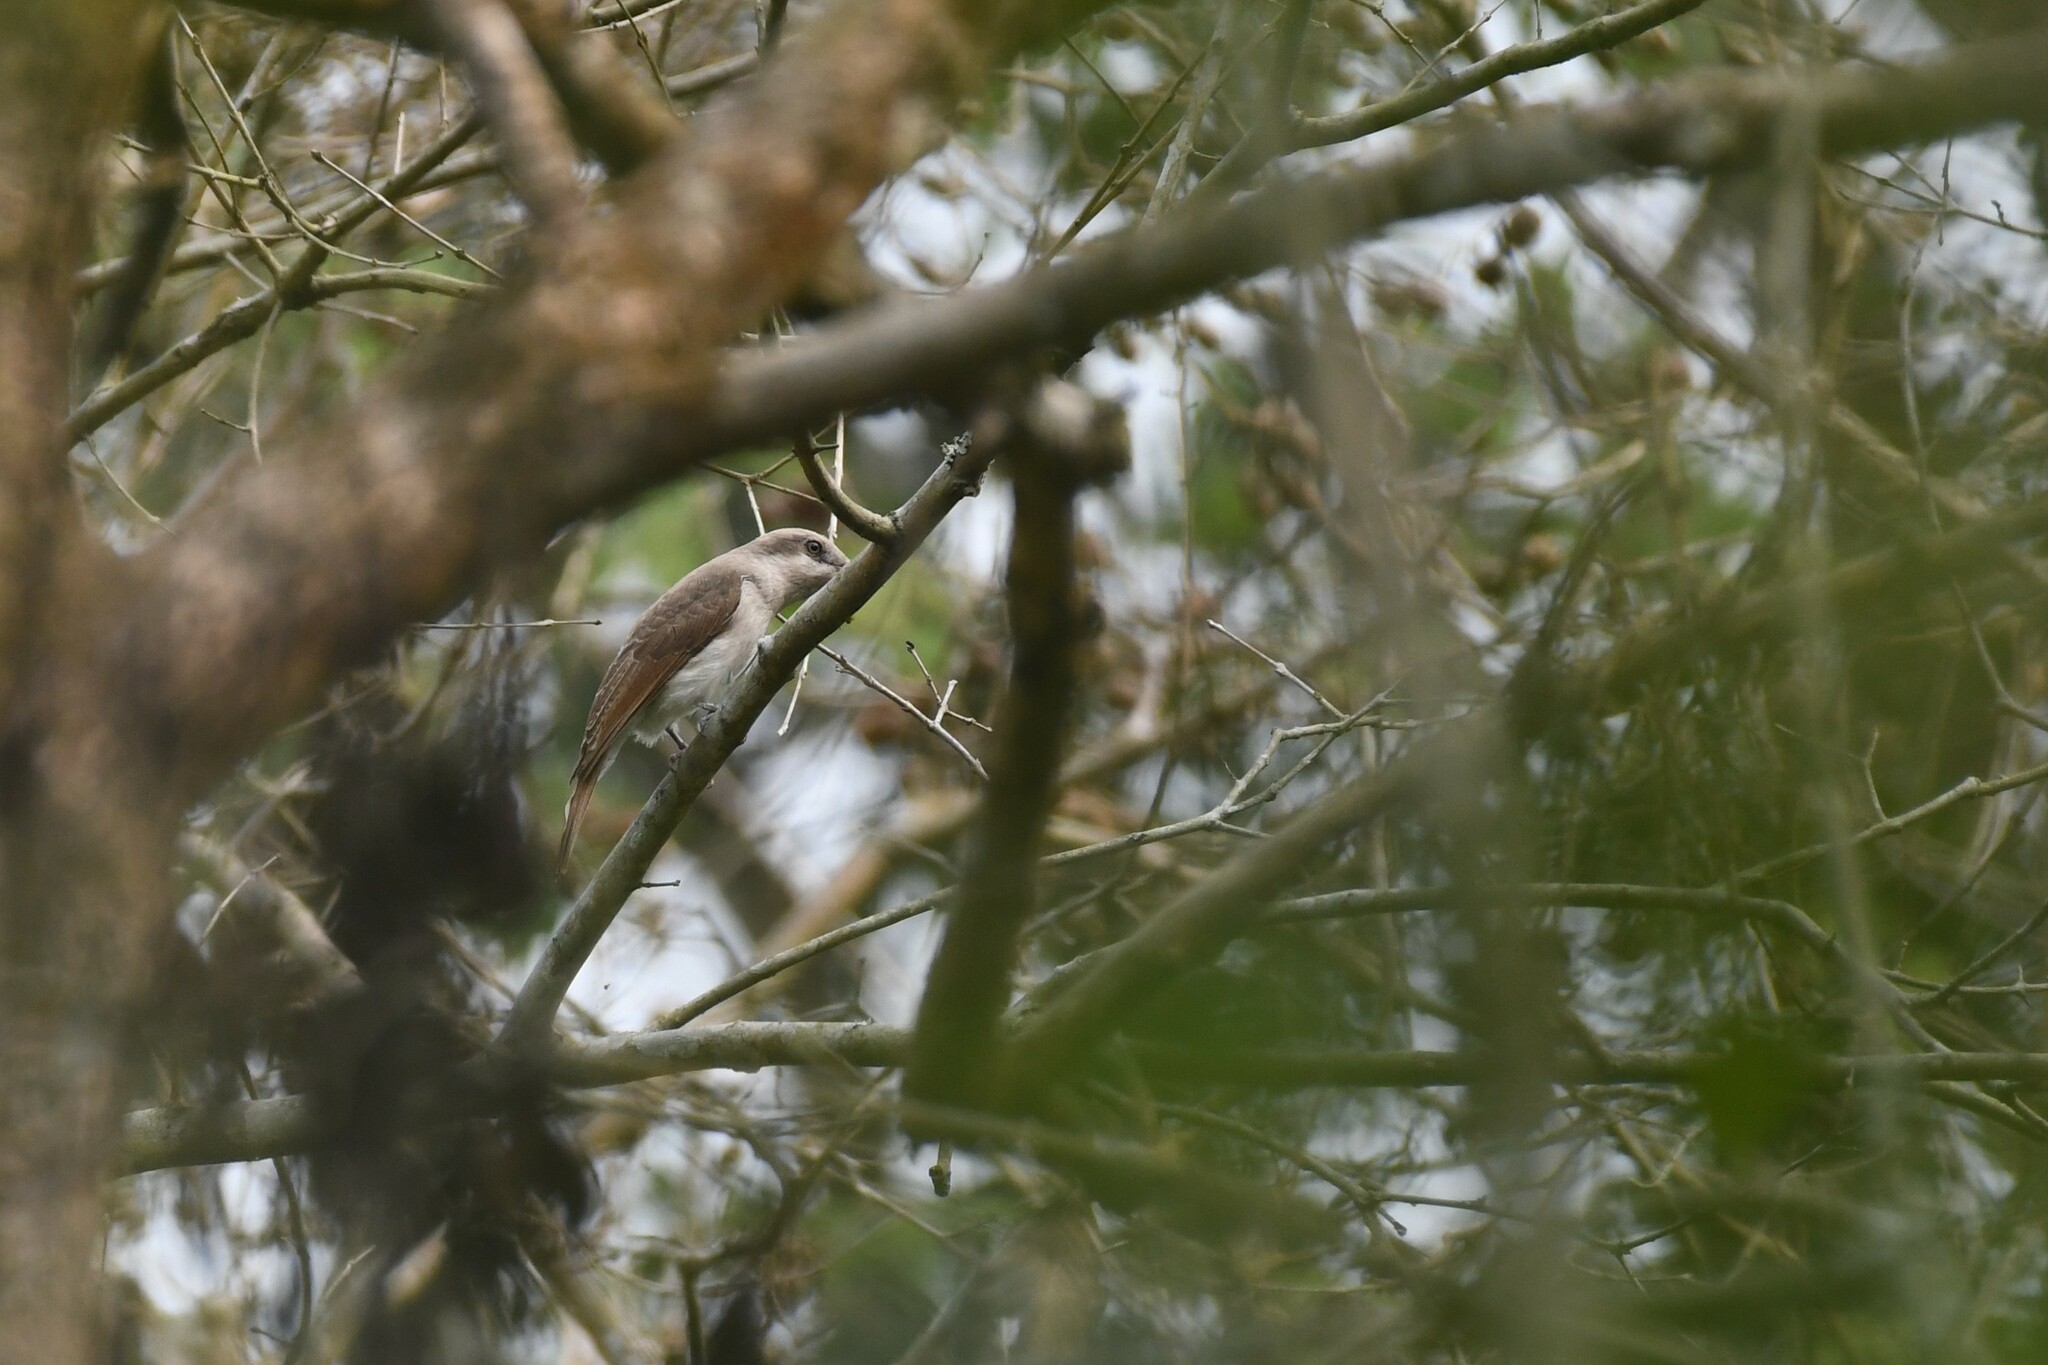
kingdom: Animalia
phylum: Chordata
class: Aves
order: Passeriformes
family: Tephrodornithidae
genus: Tephrodornis
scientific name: Tephrodornis virgatus
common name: Large woodshrike
